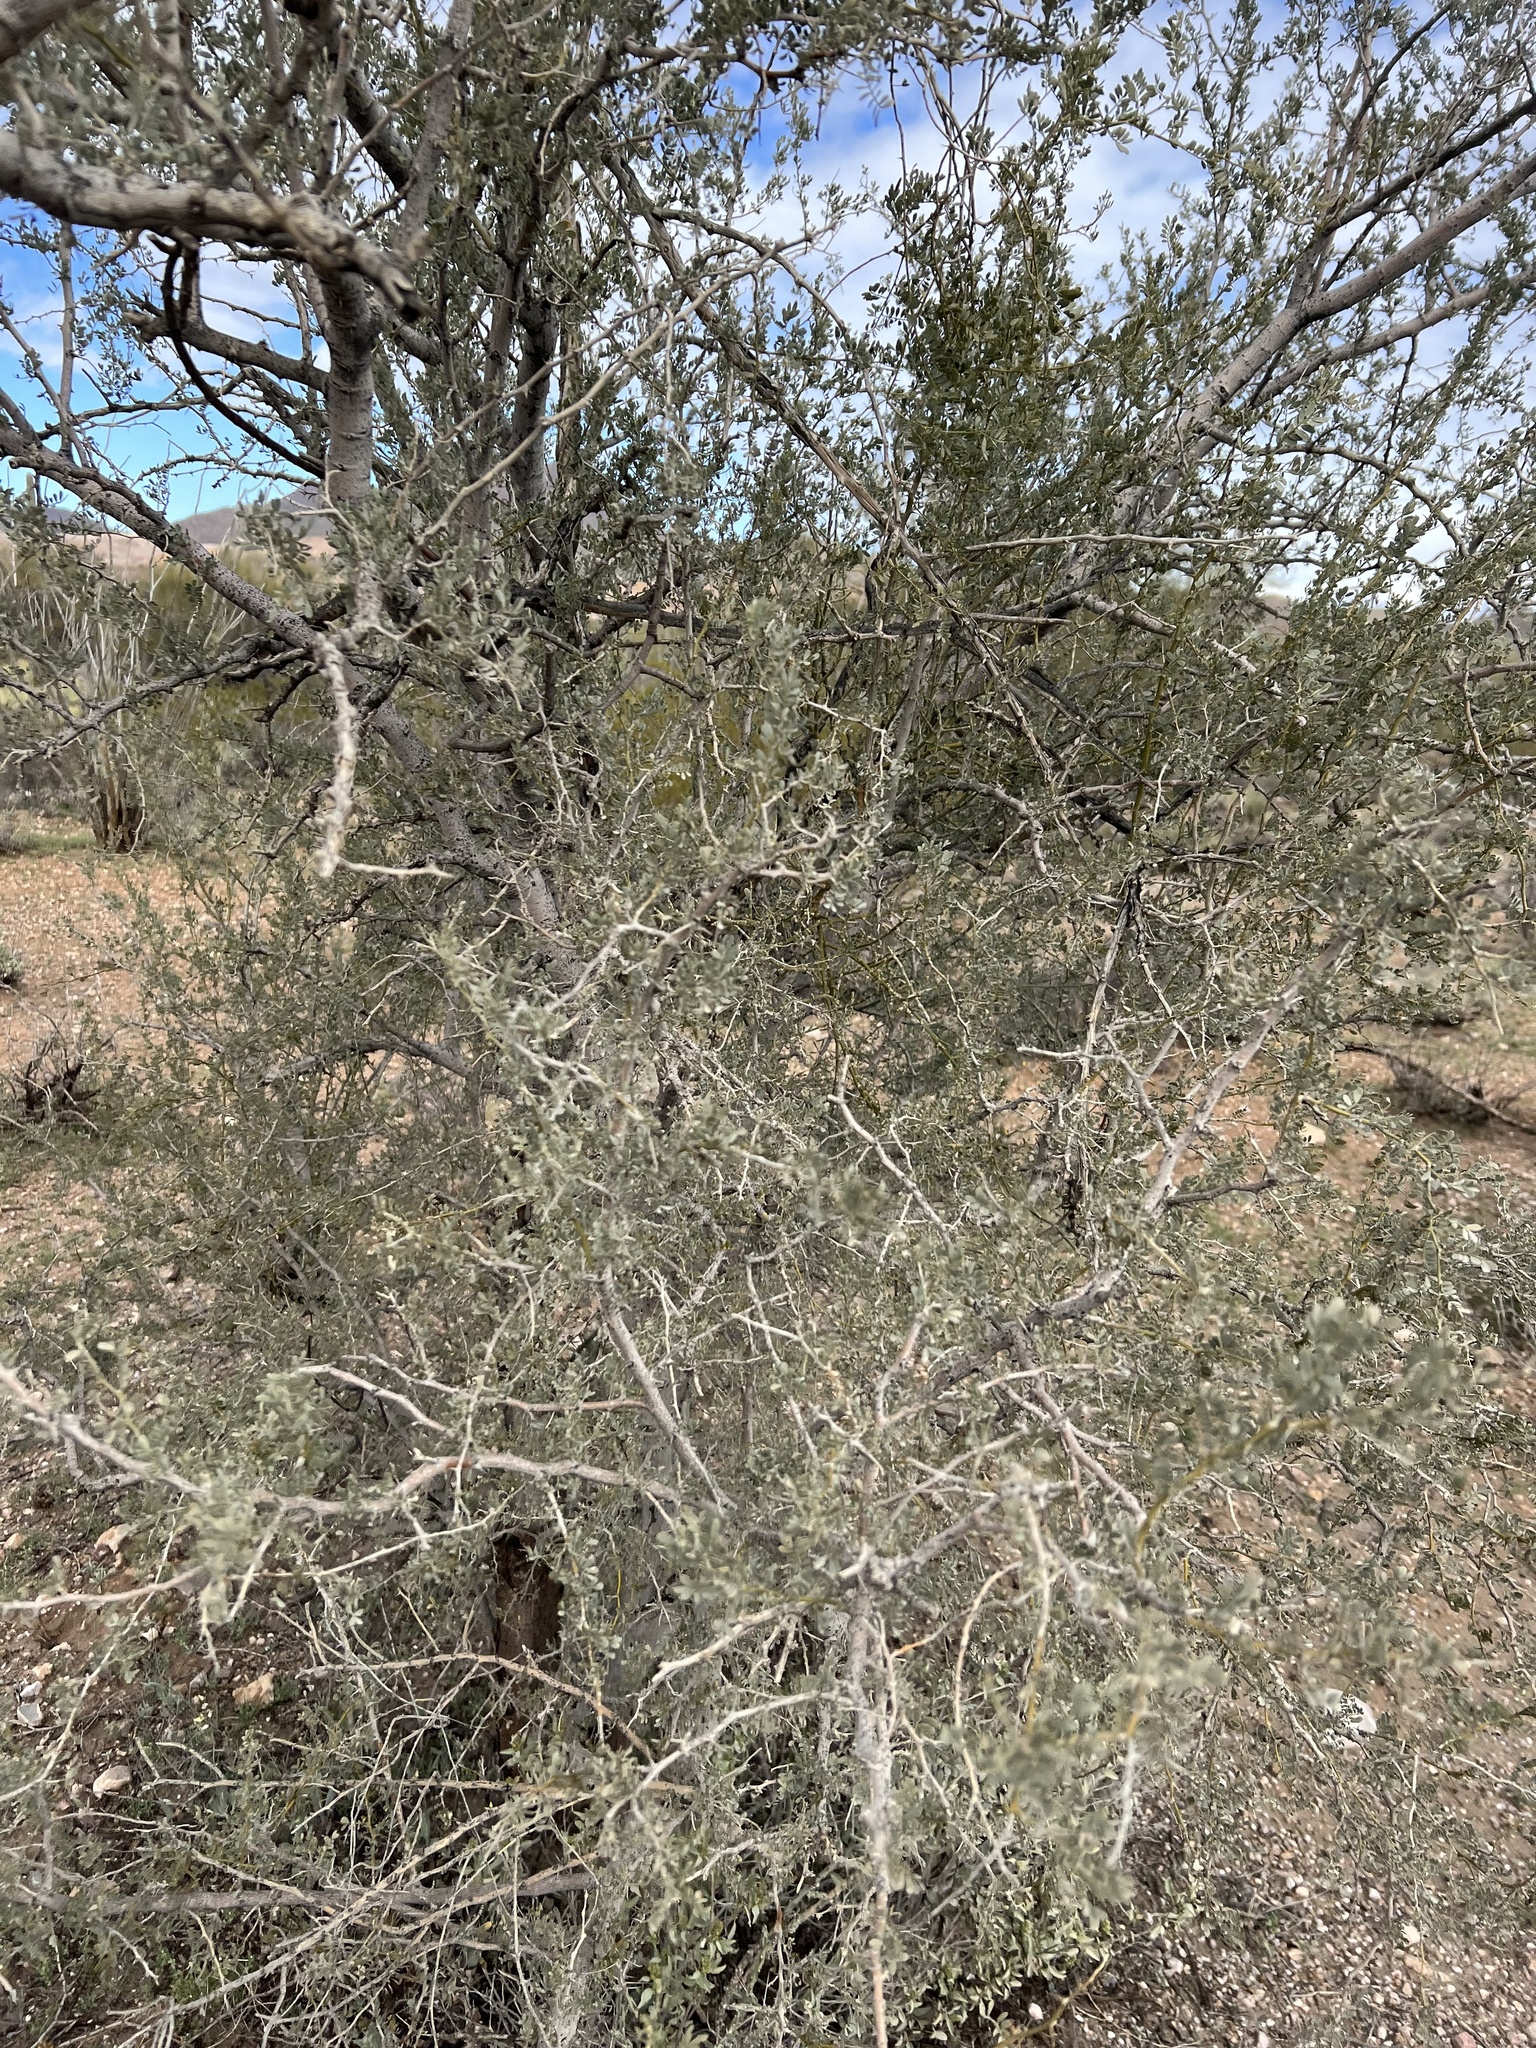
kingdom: Plantae
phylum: Tracheophyta
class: Magnoliopsida
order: Fabales
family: Fabaceae
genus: Olneya
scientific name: Olneya tesota
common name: Desert ironwood
